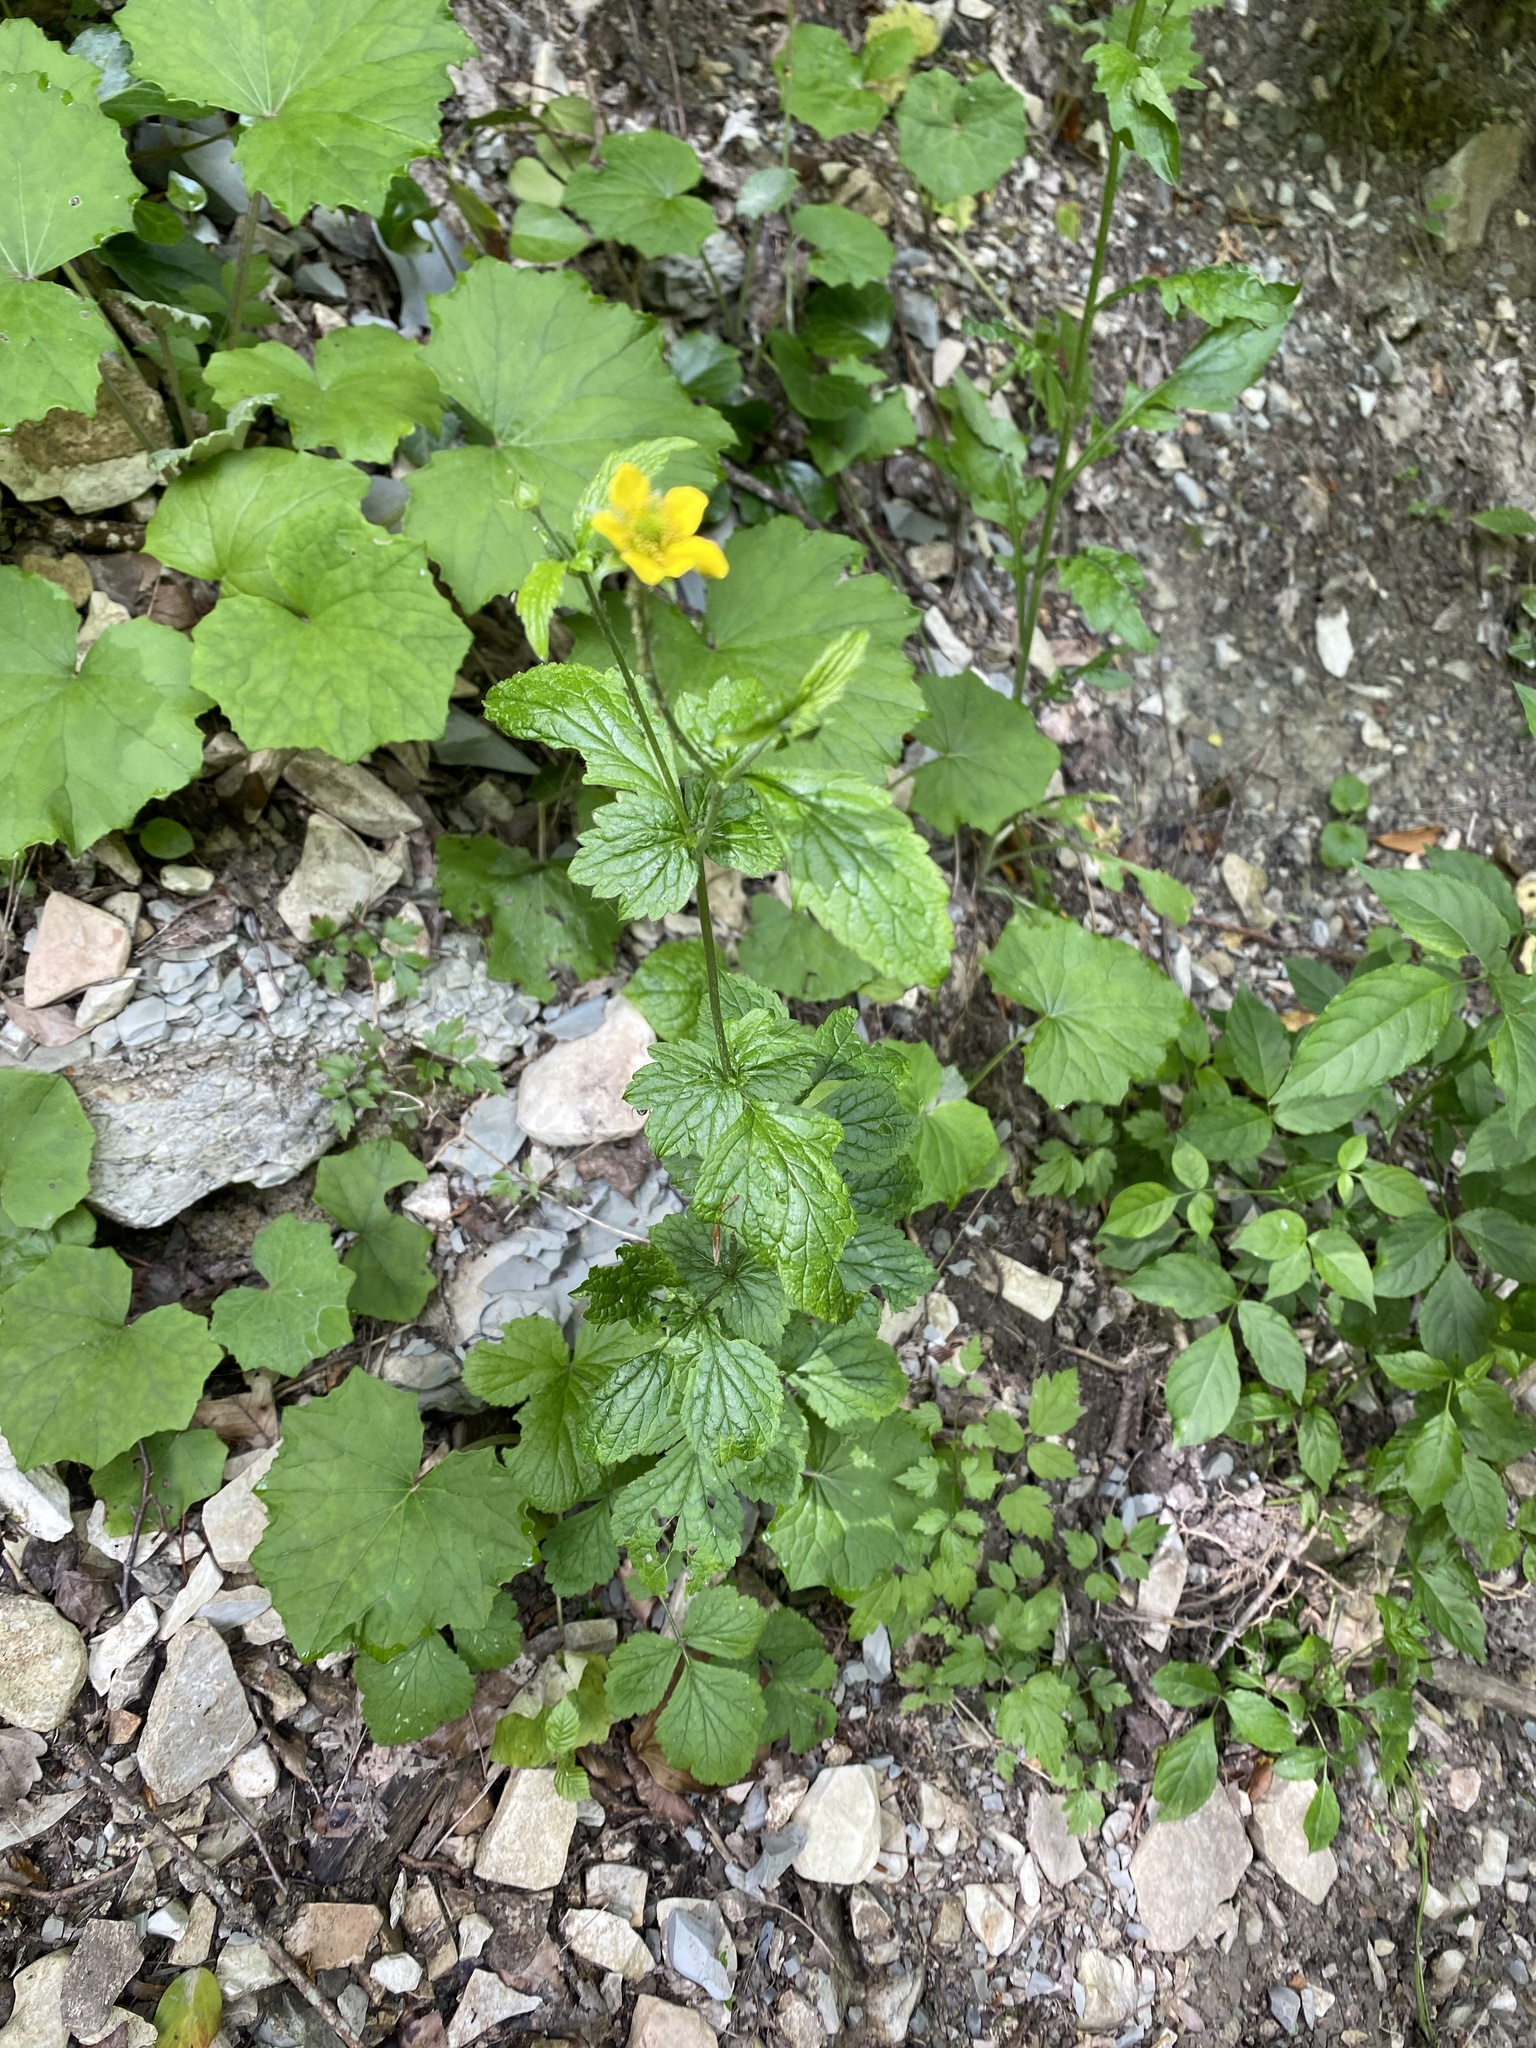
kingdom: Plantae
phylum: Tracheophyta
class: Magnoliopsida
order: Rosales
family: Rosaceae
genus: Geum
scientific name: Geum urbanum
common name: Wood avens
